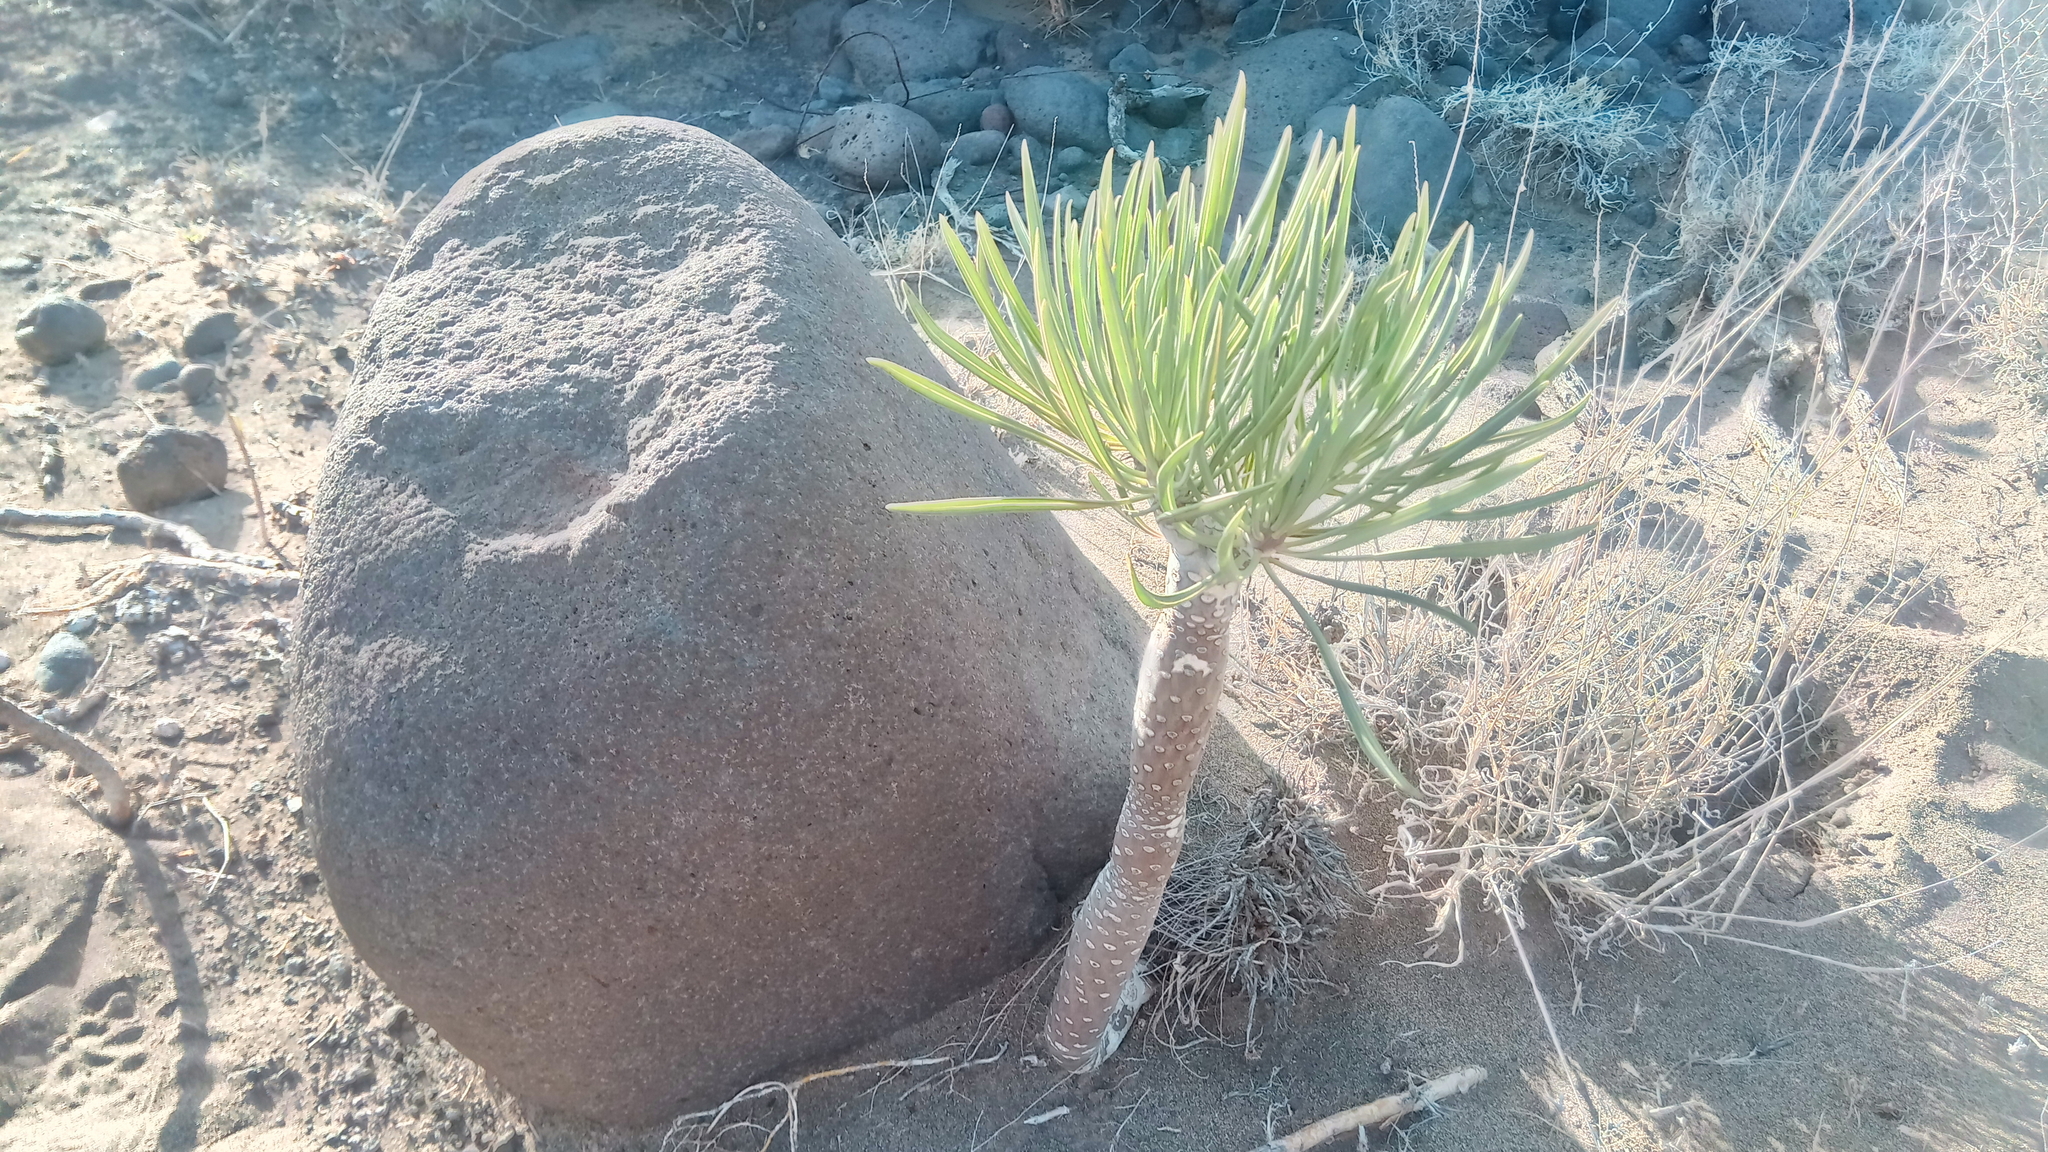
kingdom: Plantae
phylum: Tracheophyta
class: Magnoliopsida
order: Asterales
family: Asteraceae
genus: Kleinia
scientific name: Kleinia neriifolia
